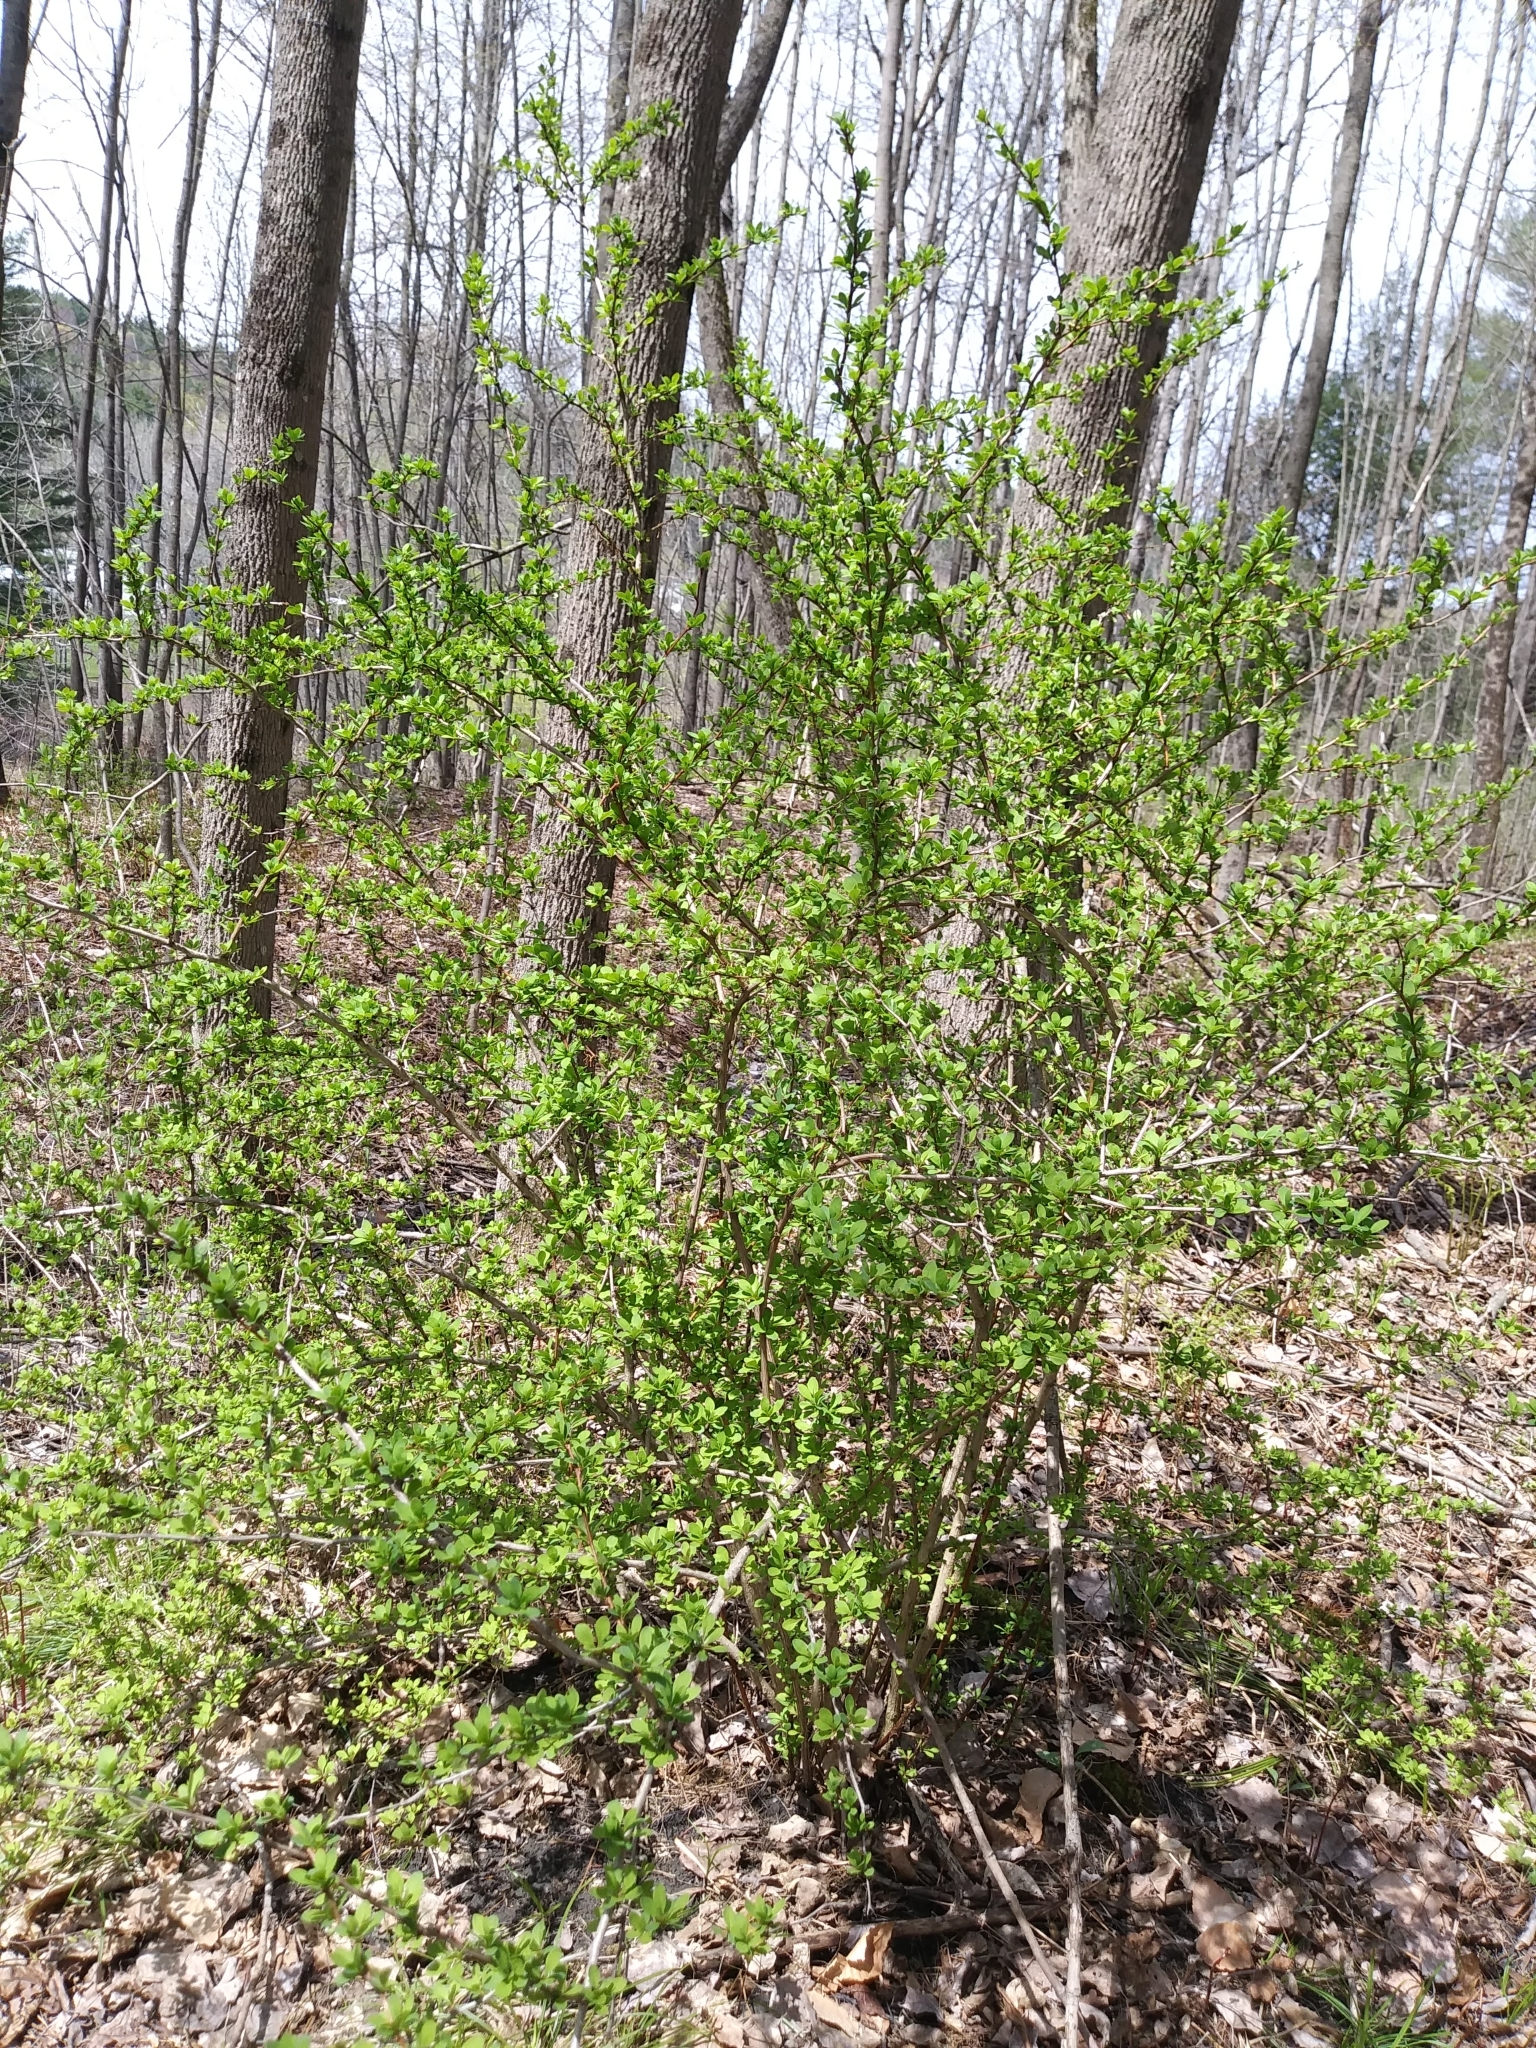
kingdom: Plantae
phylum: Tracheophyta
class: Magnoliopsida
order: Ranunculales
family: Berberidaceae
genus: Berberis
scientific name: Berberis thunbergii
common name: Japanese barberry
